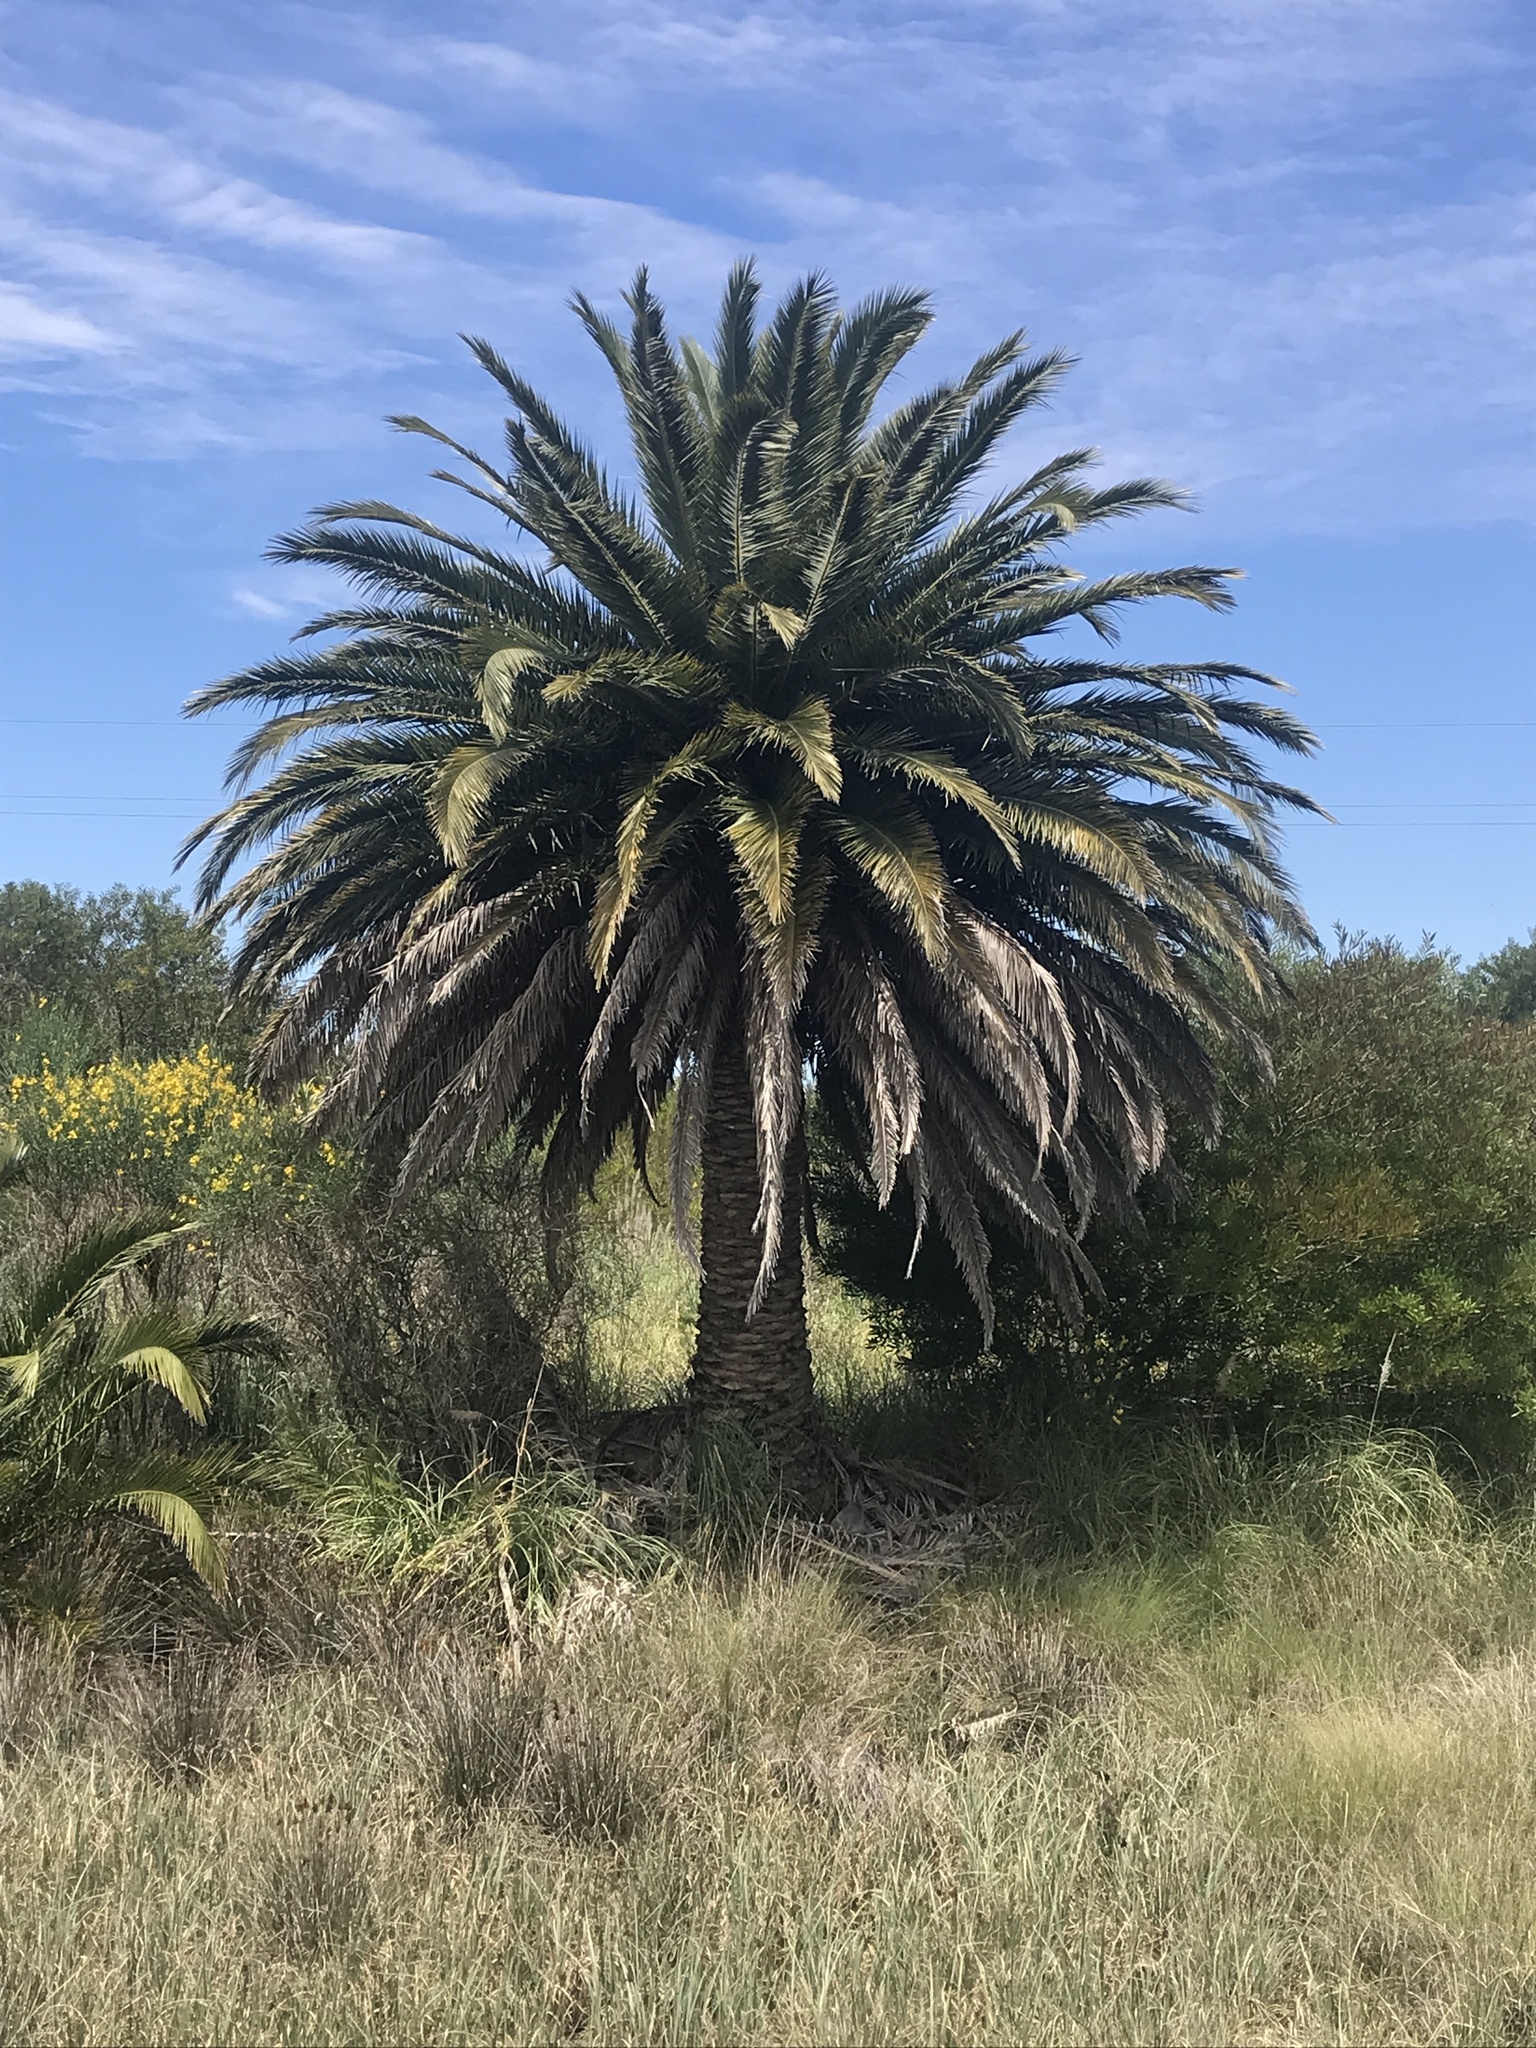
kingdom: Plantae
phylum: Tracheophyta
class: Liliopsida
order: Arecales
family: Arecaceae
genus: Phoenix
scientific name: Phoenix canariensis
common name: Canary island date palm
